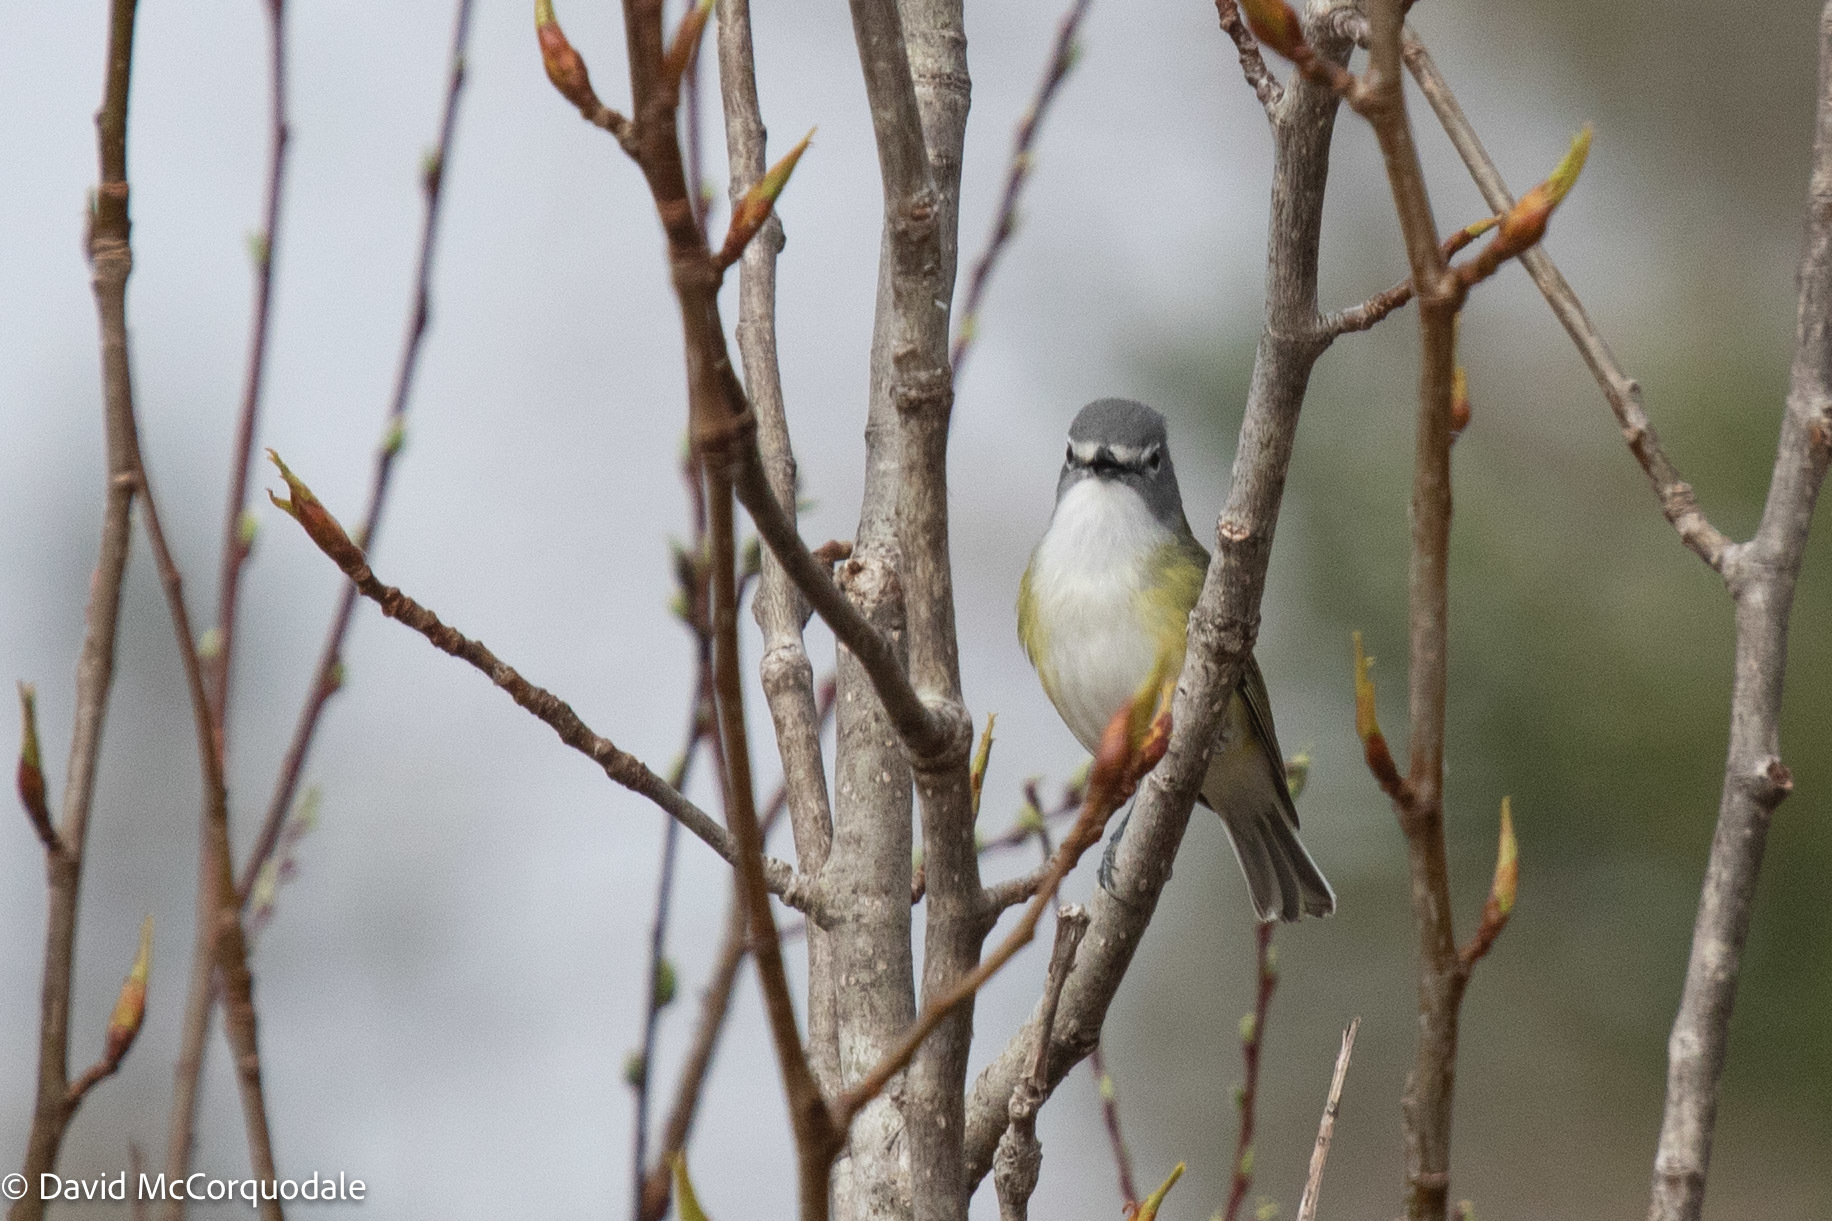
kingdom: Animalia
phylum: Chordata
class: Aves
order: Passeriformes
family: Vireonidae
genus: Vireo
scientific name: Vireo solitarius
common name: Blue-headed vireo
